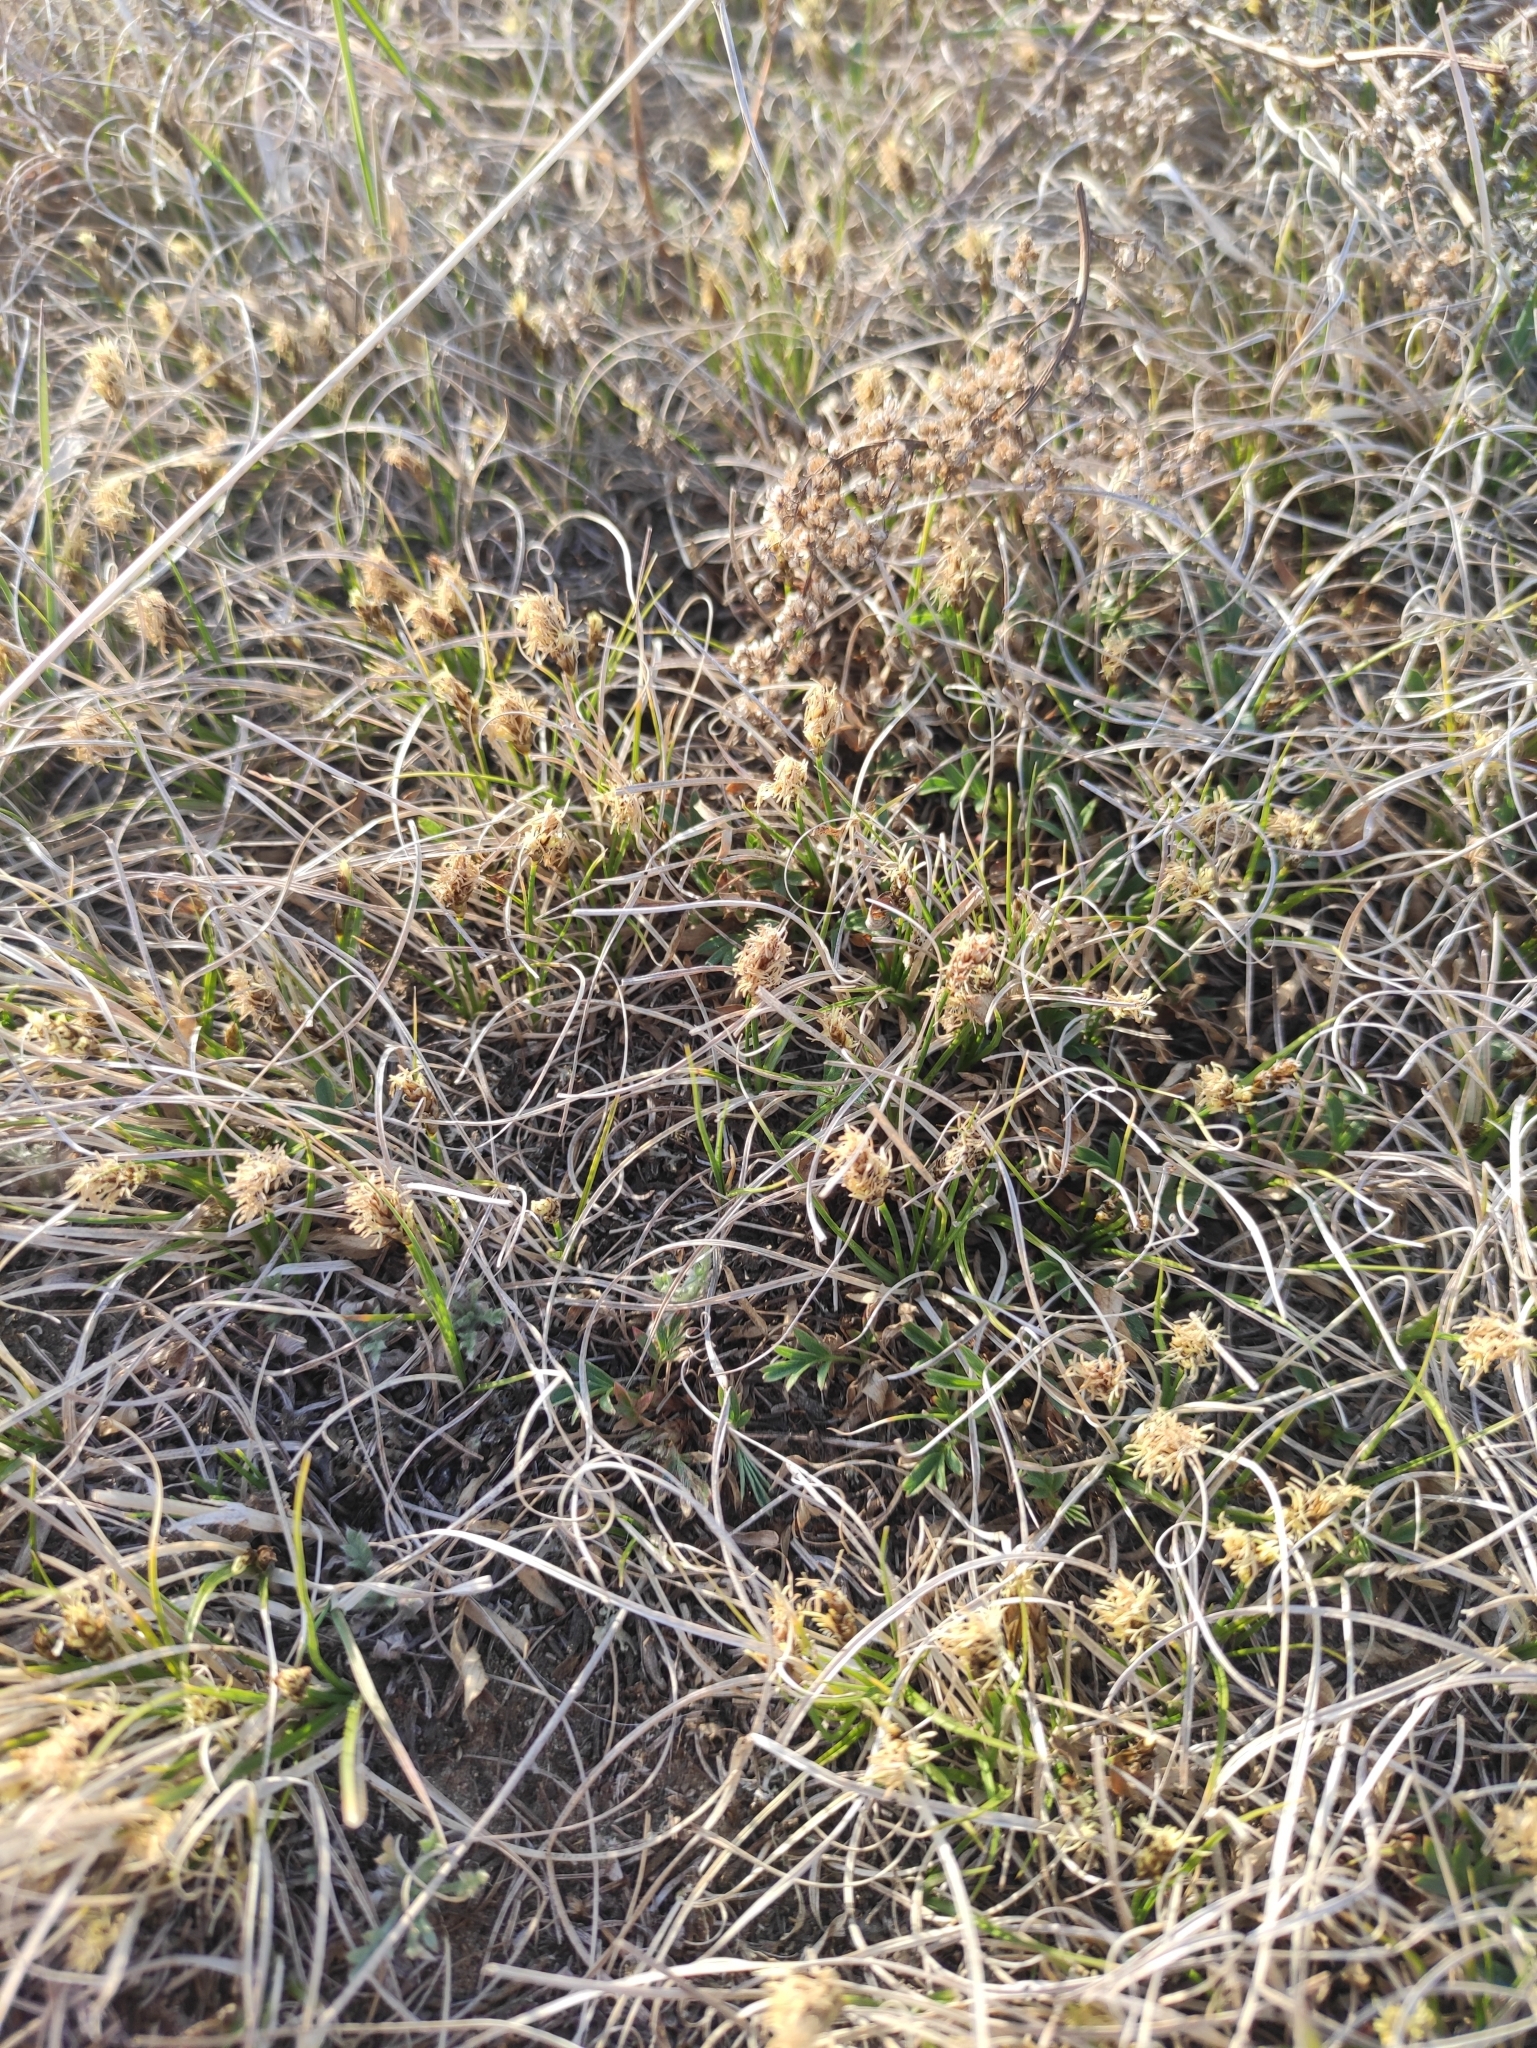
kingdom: Plantae
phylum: Tracheophyta
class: Liliopsida
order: Poales
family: Cyperaceae
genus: Carex
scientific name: Carex duriuscula
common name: Involute-leaved sedge
